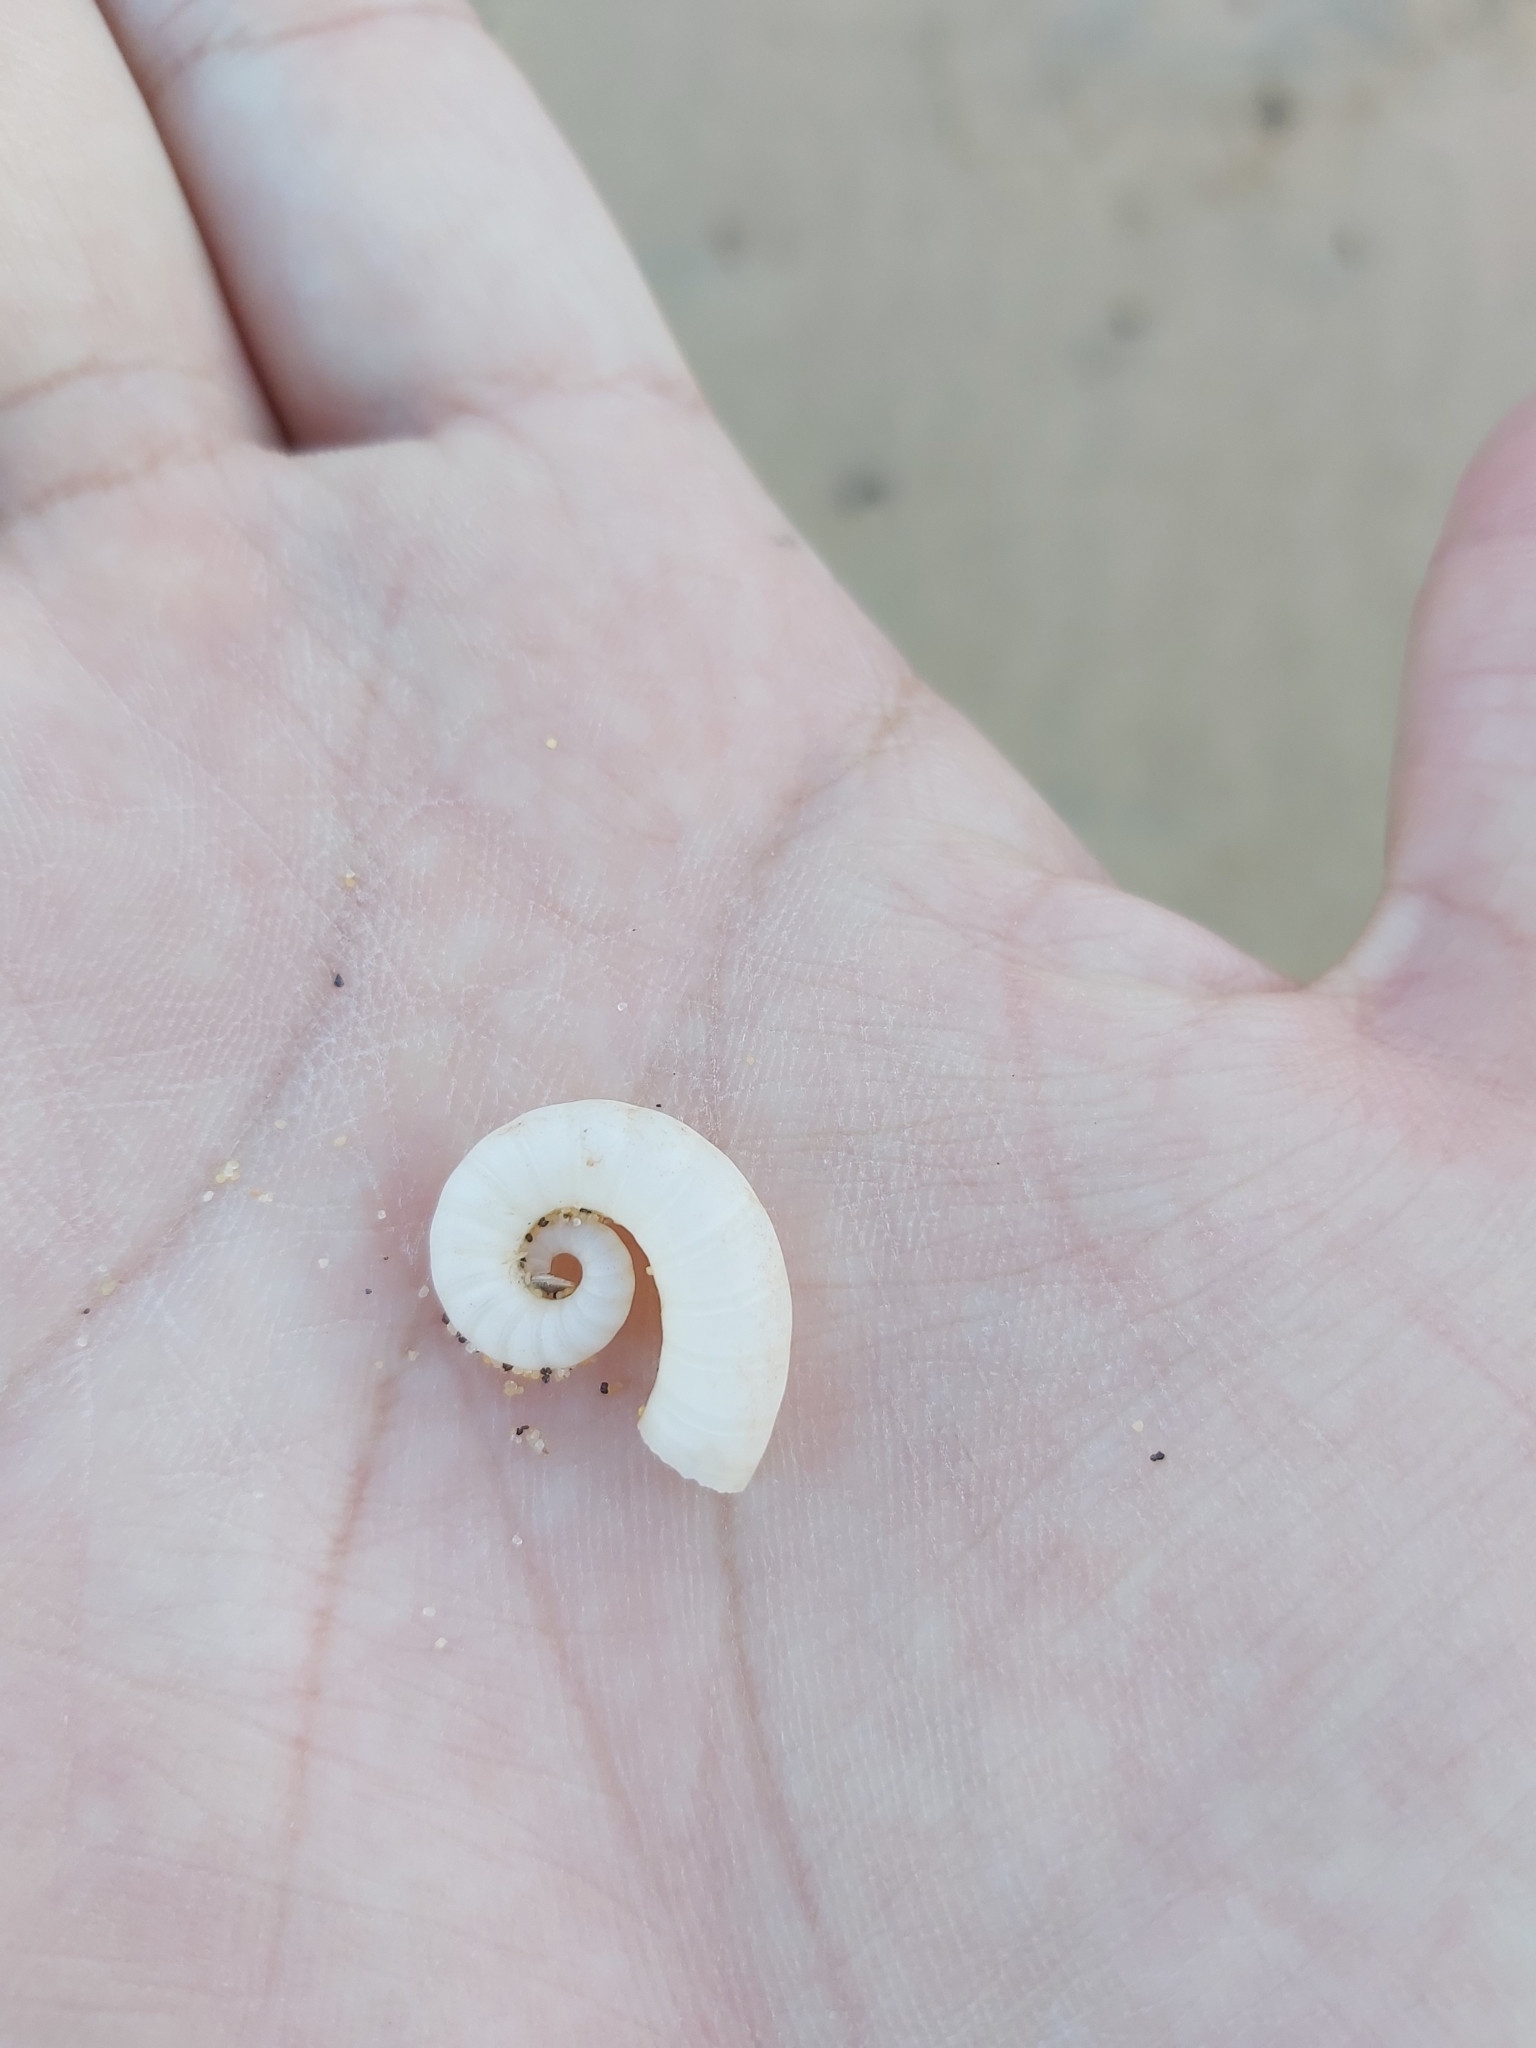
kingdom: Animalia
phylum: Mollusca
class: Cephalopoda
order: Spirulida
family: Spirulidae
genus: Spirula
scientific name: Spirula spirula
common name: Ram's horn squid
